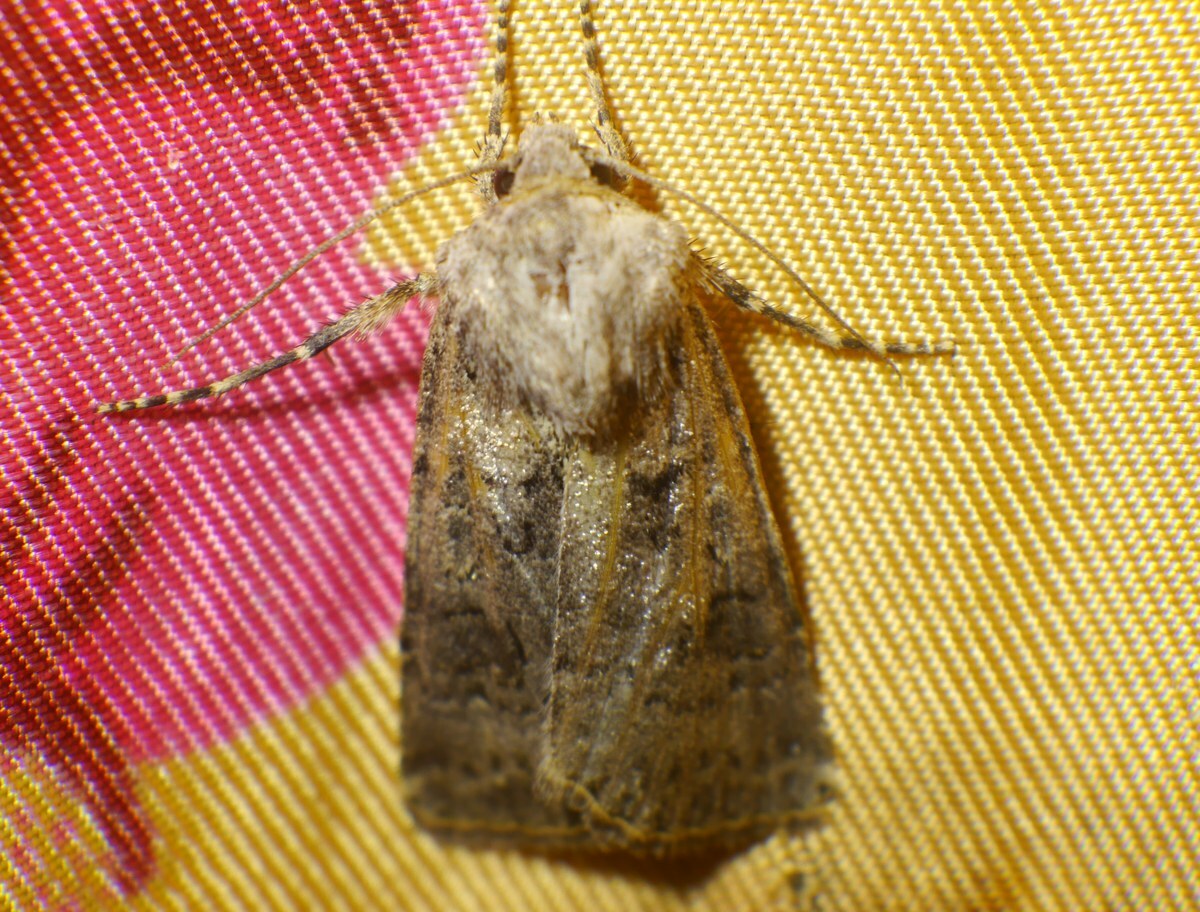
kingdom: Animalia
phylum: Arthropoda
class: Insecta
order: Lepidoptera
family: Noctuidae
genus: Agrotis
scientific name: Agrotis bigramma
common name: Great dart
